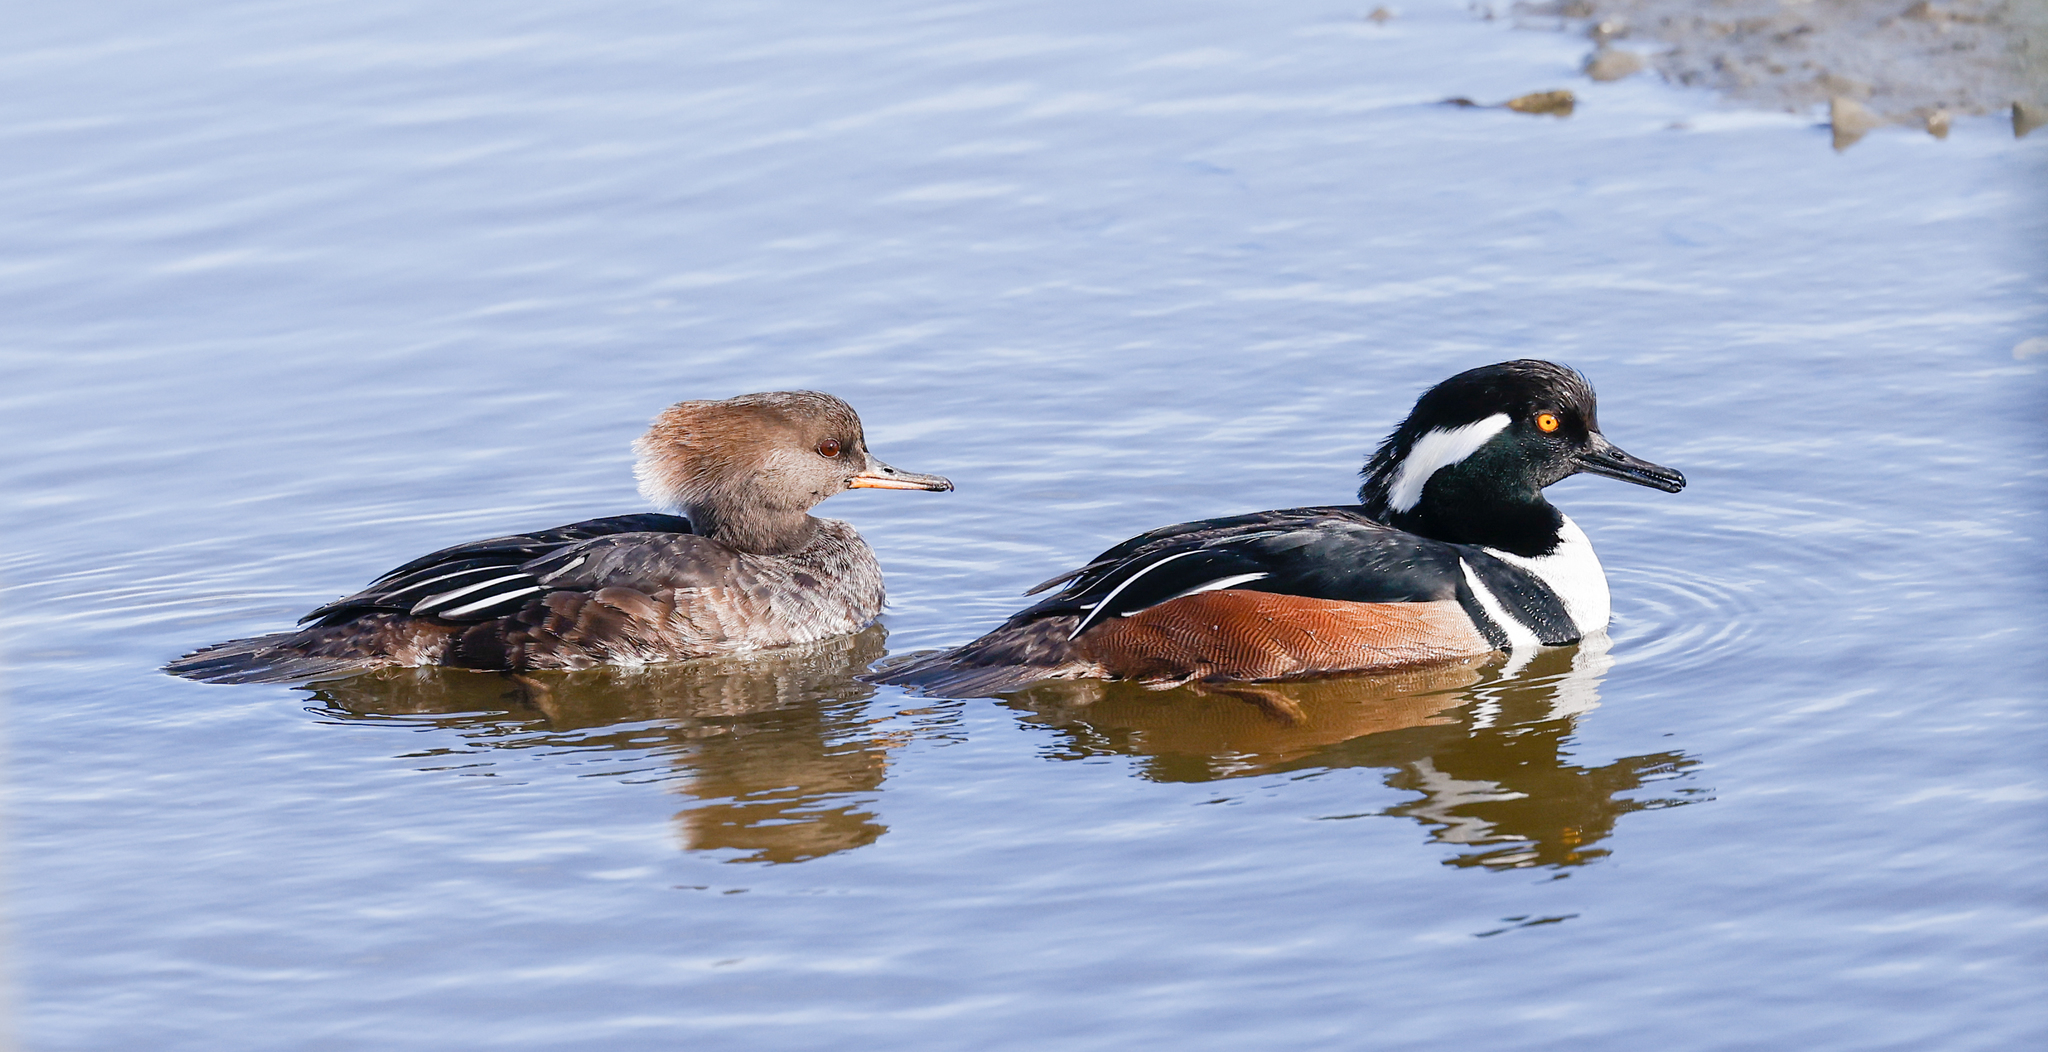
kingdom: Animalia
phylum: Chordata
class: Aves
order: Anseriformes
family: Anatidae
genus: Lophodytes
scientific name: Lophodytes cucullatus
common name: Hooded merganser
